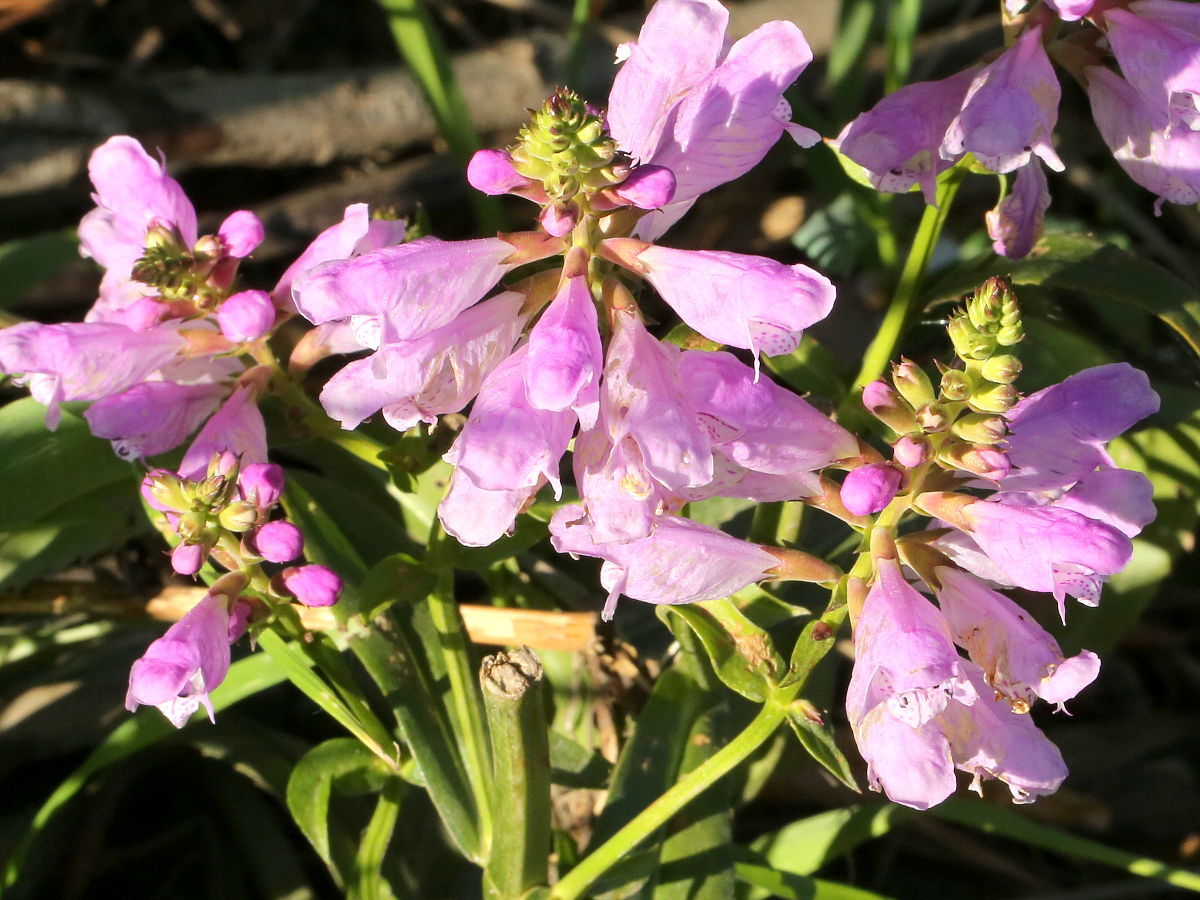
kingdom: Plantae
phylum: Tracheophyta
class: Magnoliopsida
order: Lamiales
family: Lamiaceae
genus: Physostegia
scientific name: Physostegia virginiana
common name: Obedient-plant
